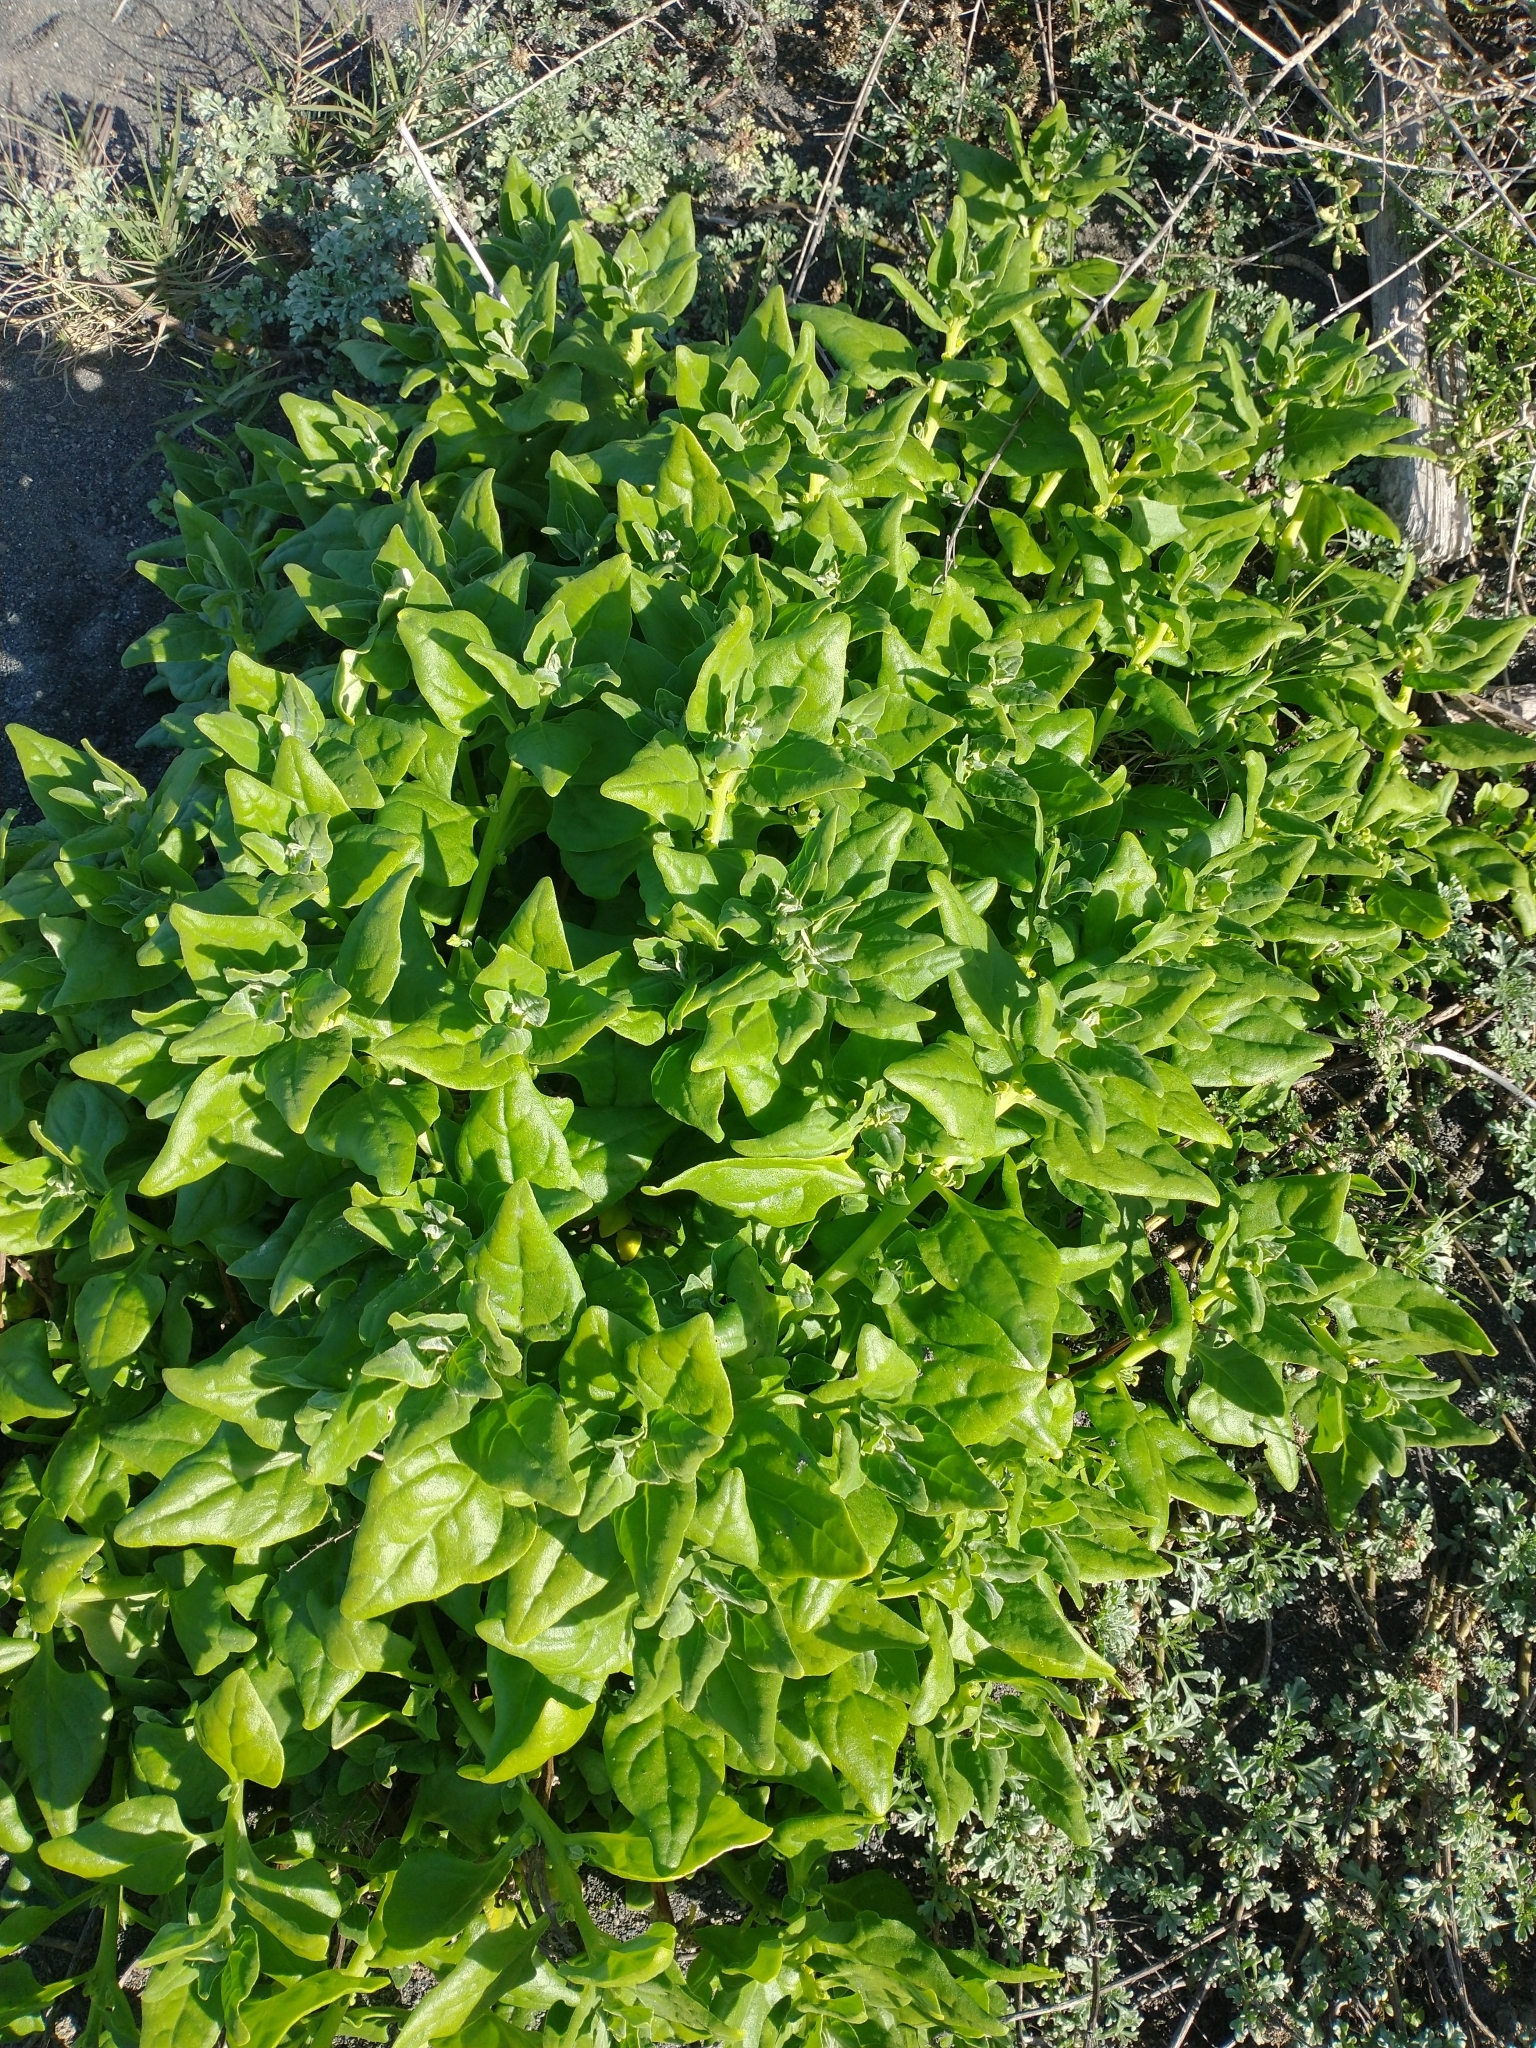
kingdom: Plantae
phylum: Tracheophyta
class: Magnoliopsida
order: Caryophyllales
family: Aizoaceae
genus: Tetragonia
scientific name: Tetragonia tetragonoides
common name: New zealand-spinach
